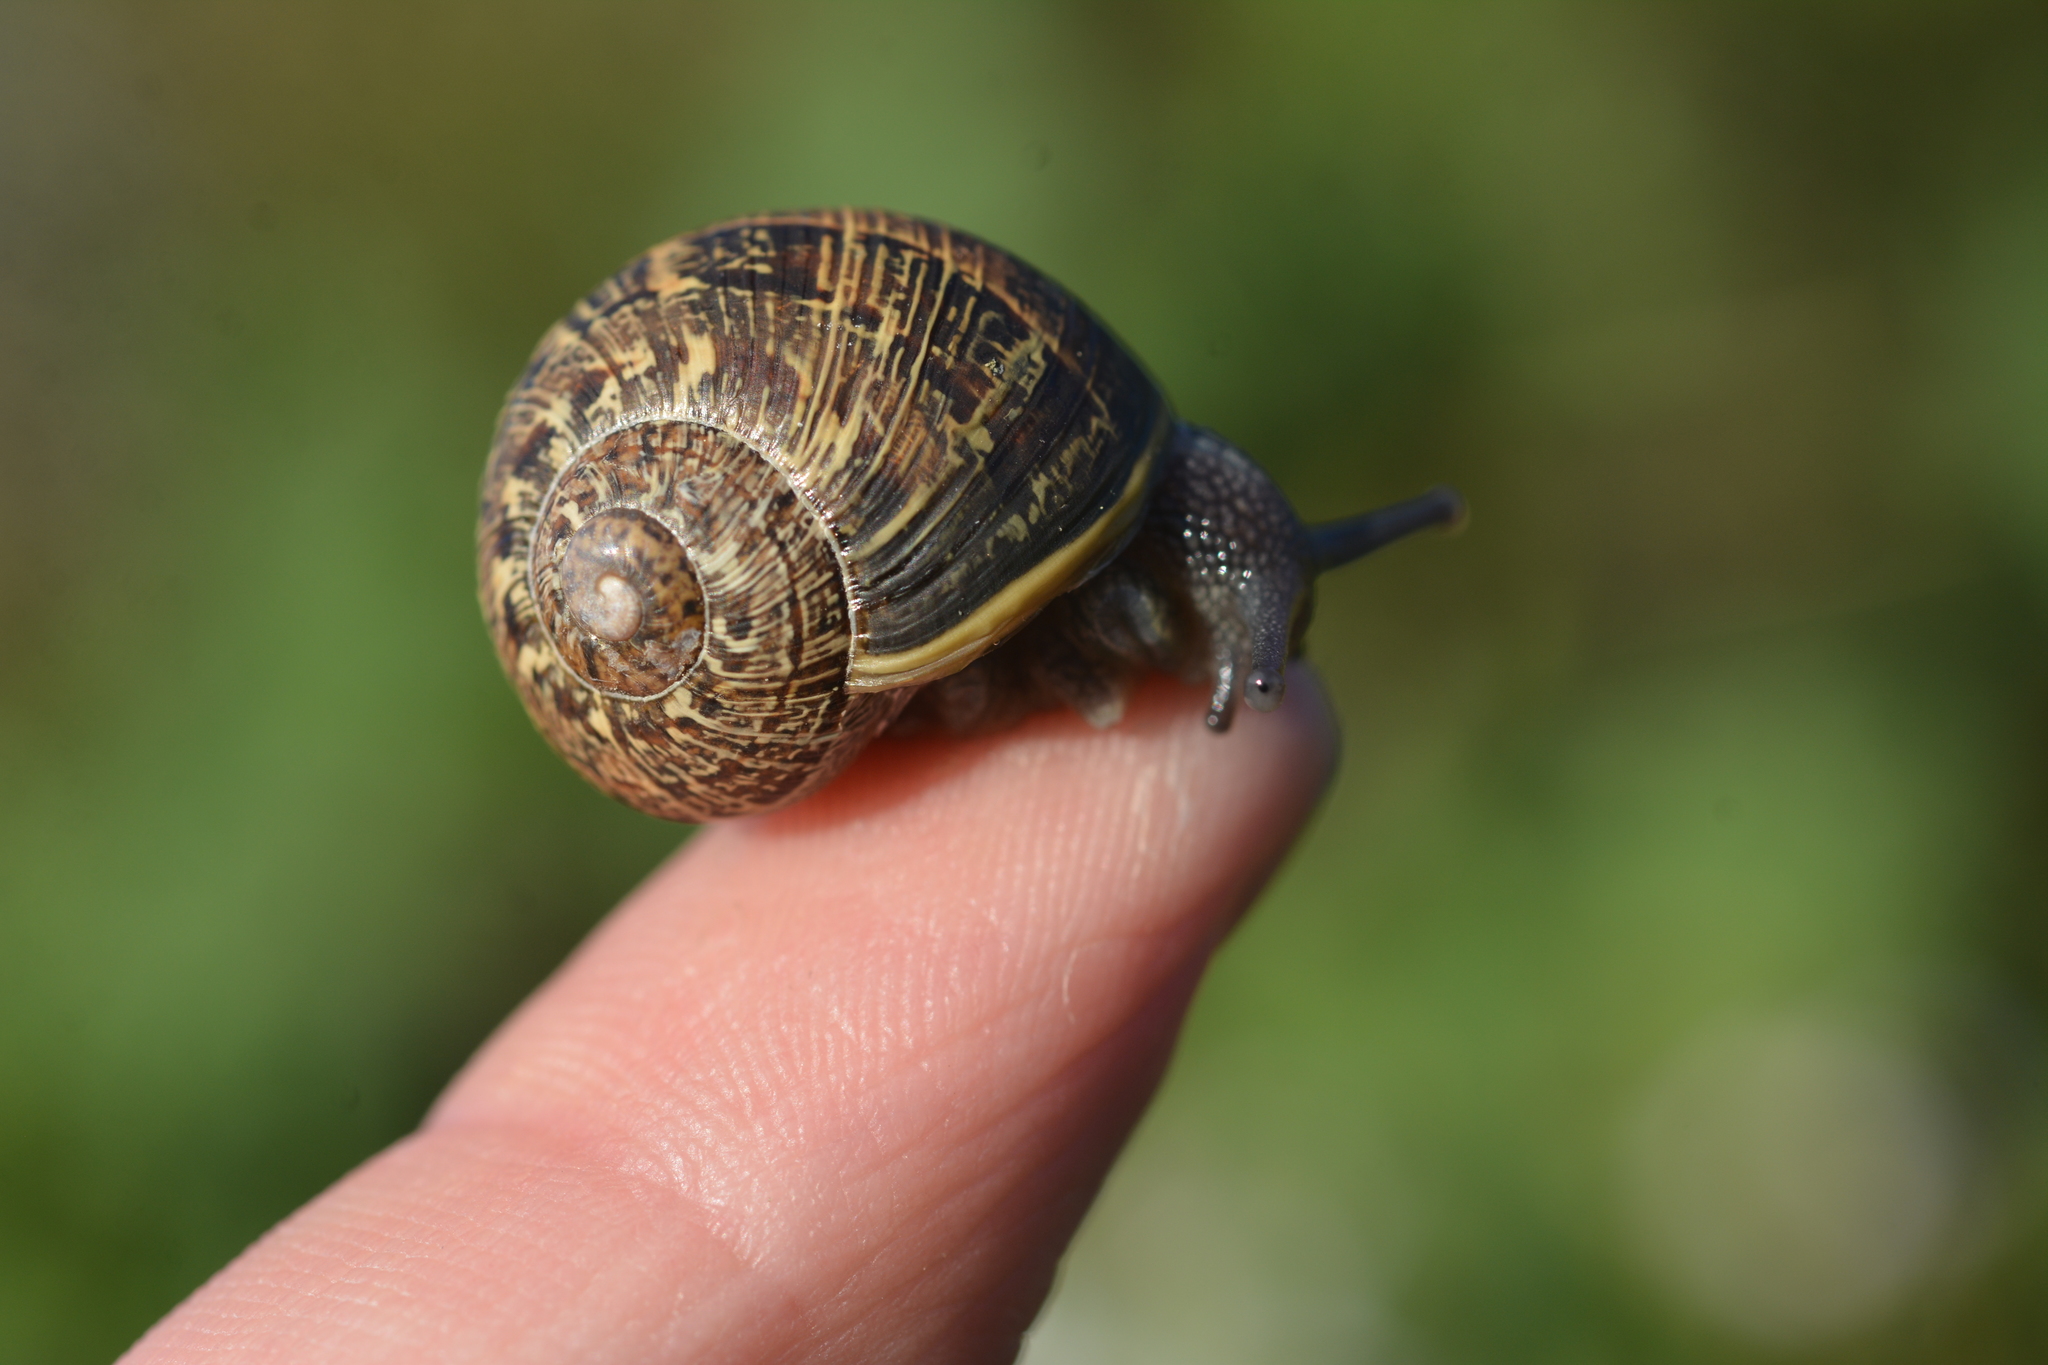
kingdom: Animalia
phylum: Mollusca
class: Gastropoda
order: Stylommatophora
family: Helicidae
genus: Cornu
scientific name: Cornu aspersum
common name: Brown garden snail
